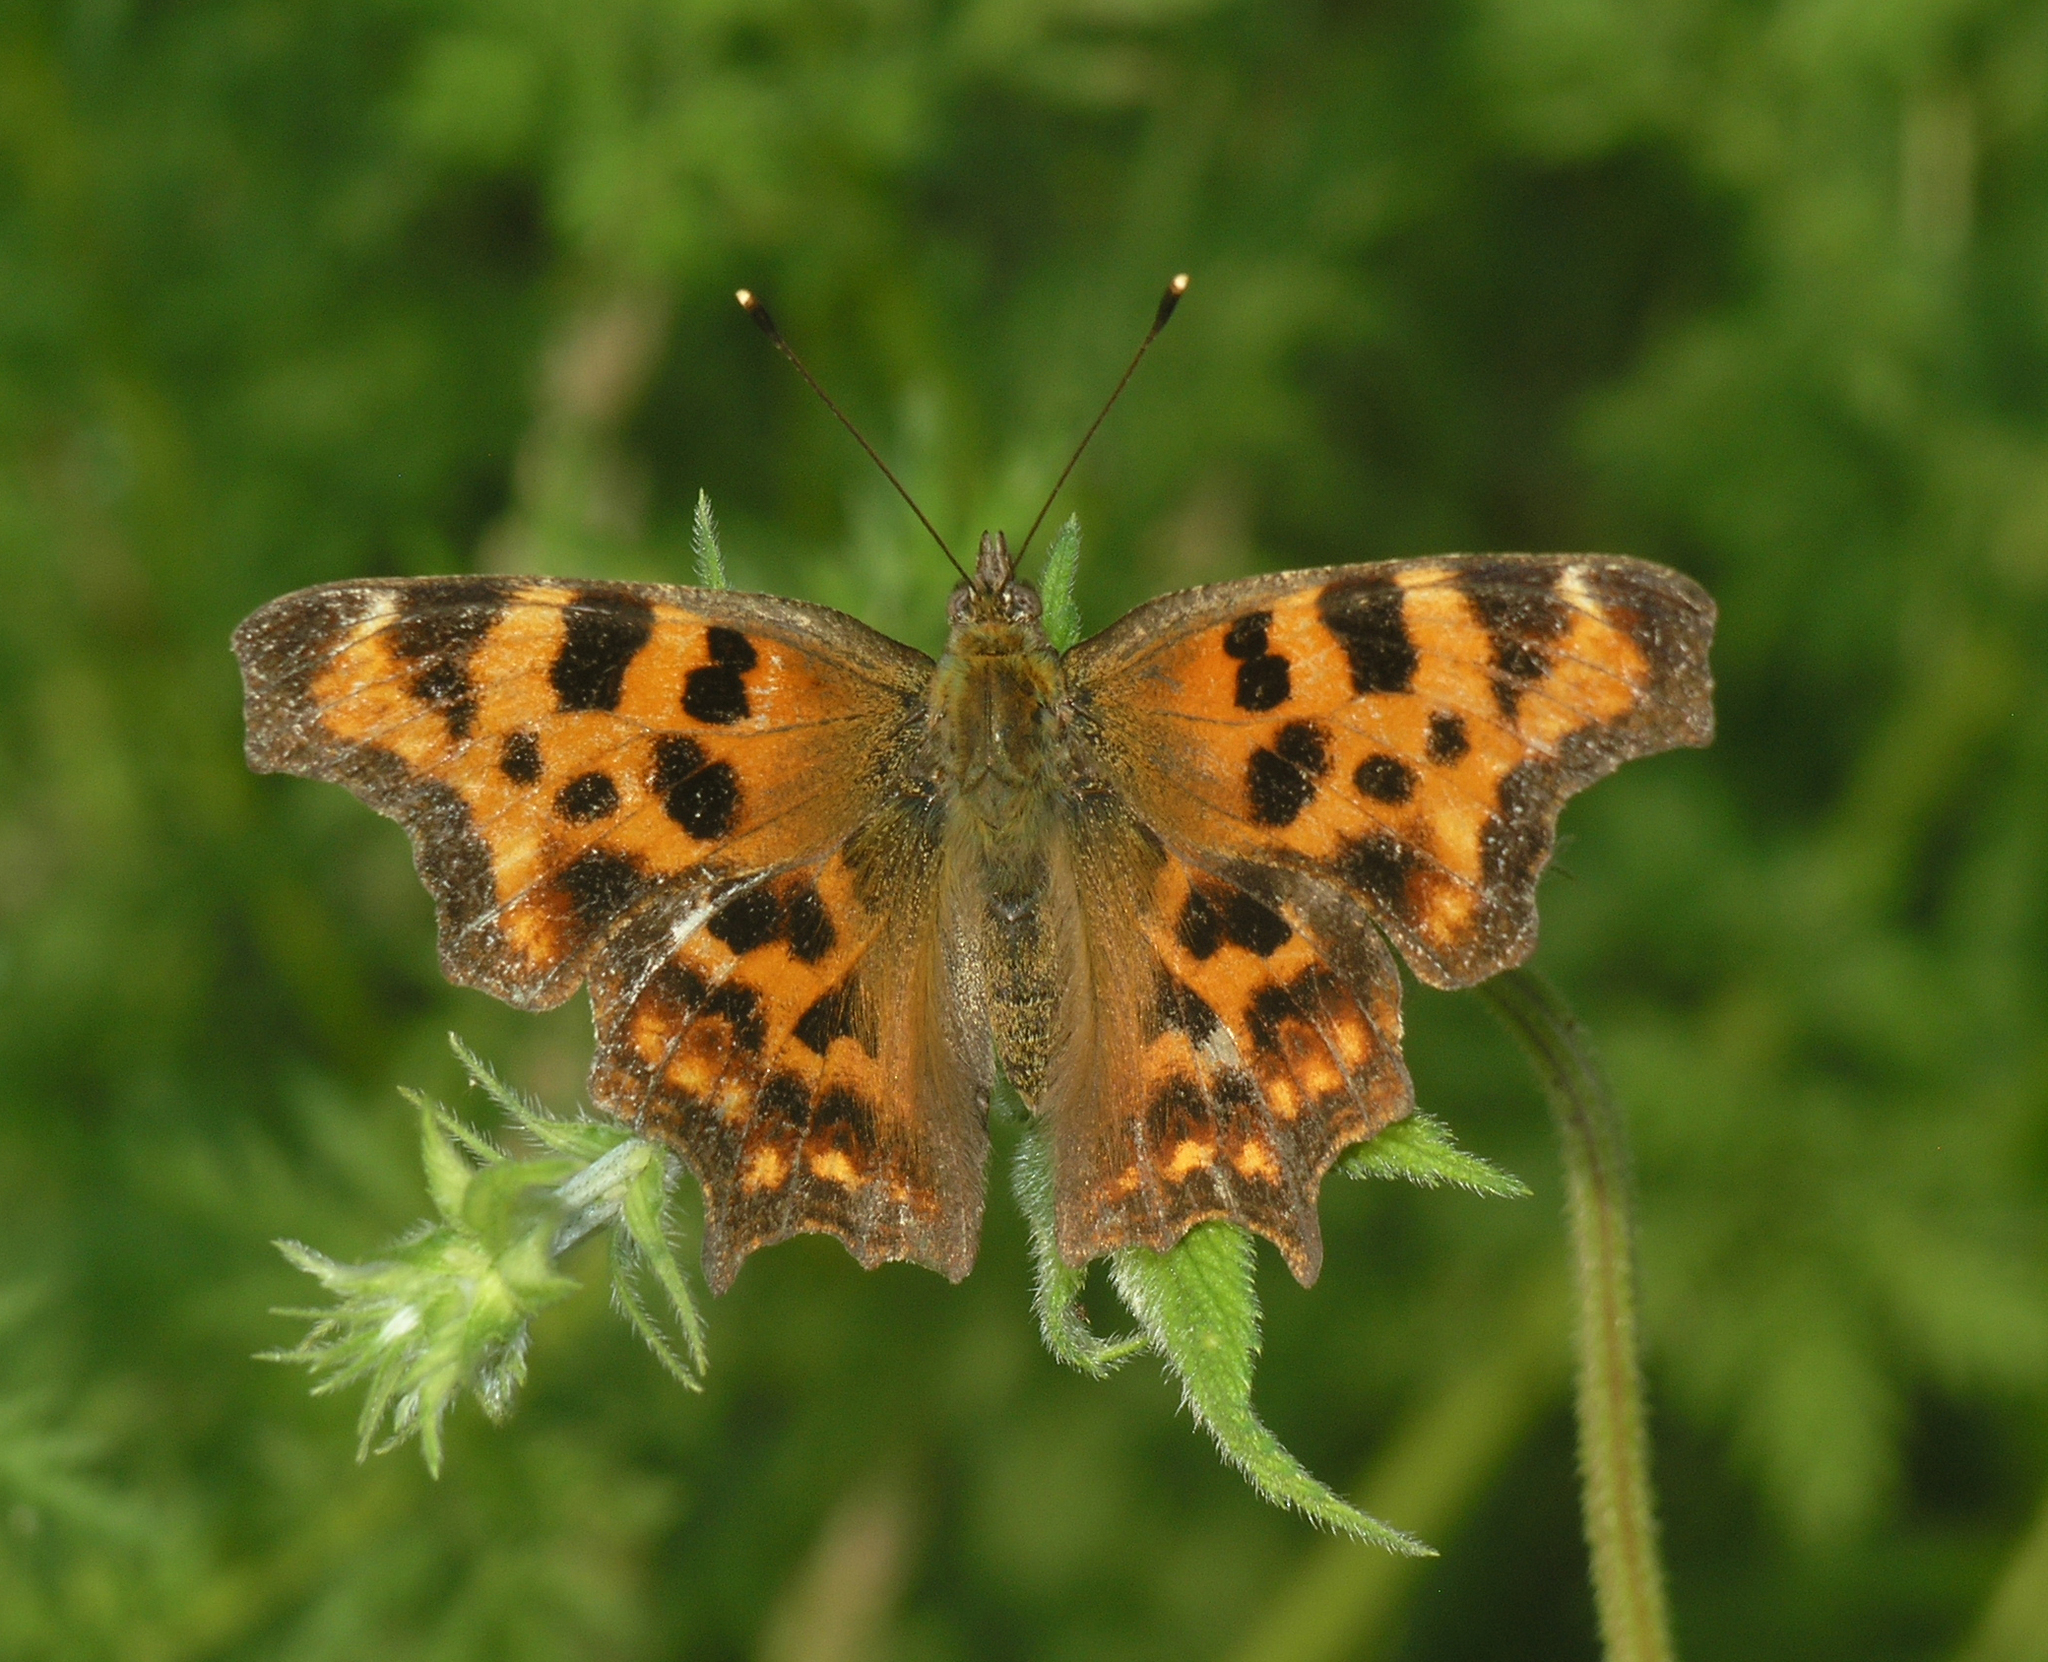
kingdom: Animalia
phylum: Arthropoda
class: Insecta
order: Lepidoptera
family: Nymphalidae
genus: Polygonia
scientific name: Polygonia c-album
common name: Comma
